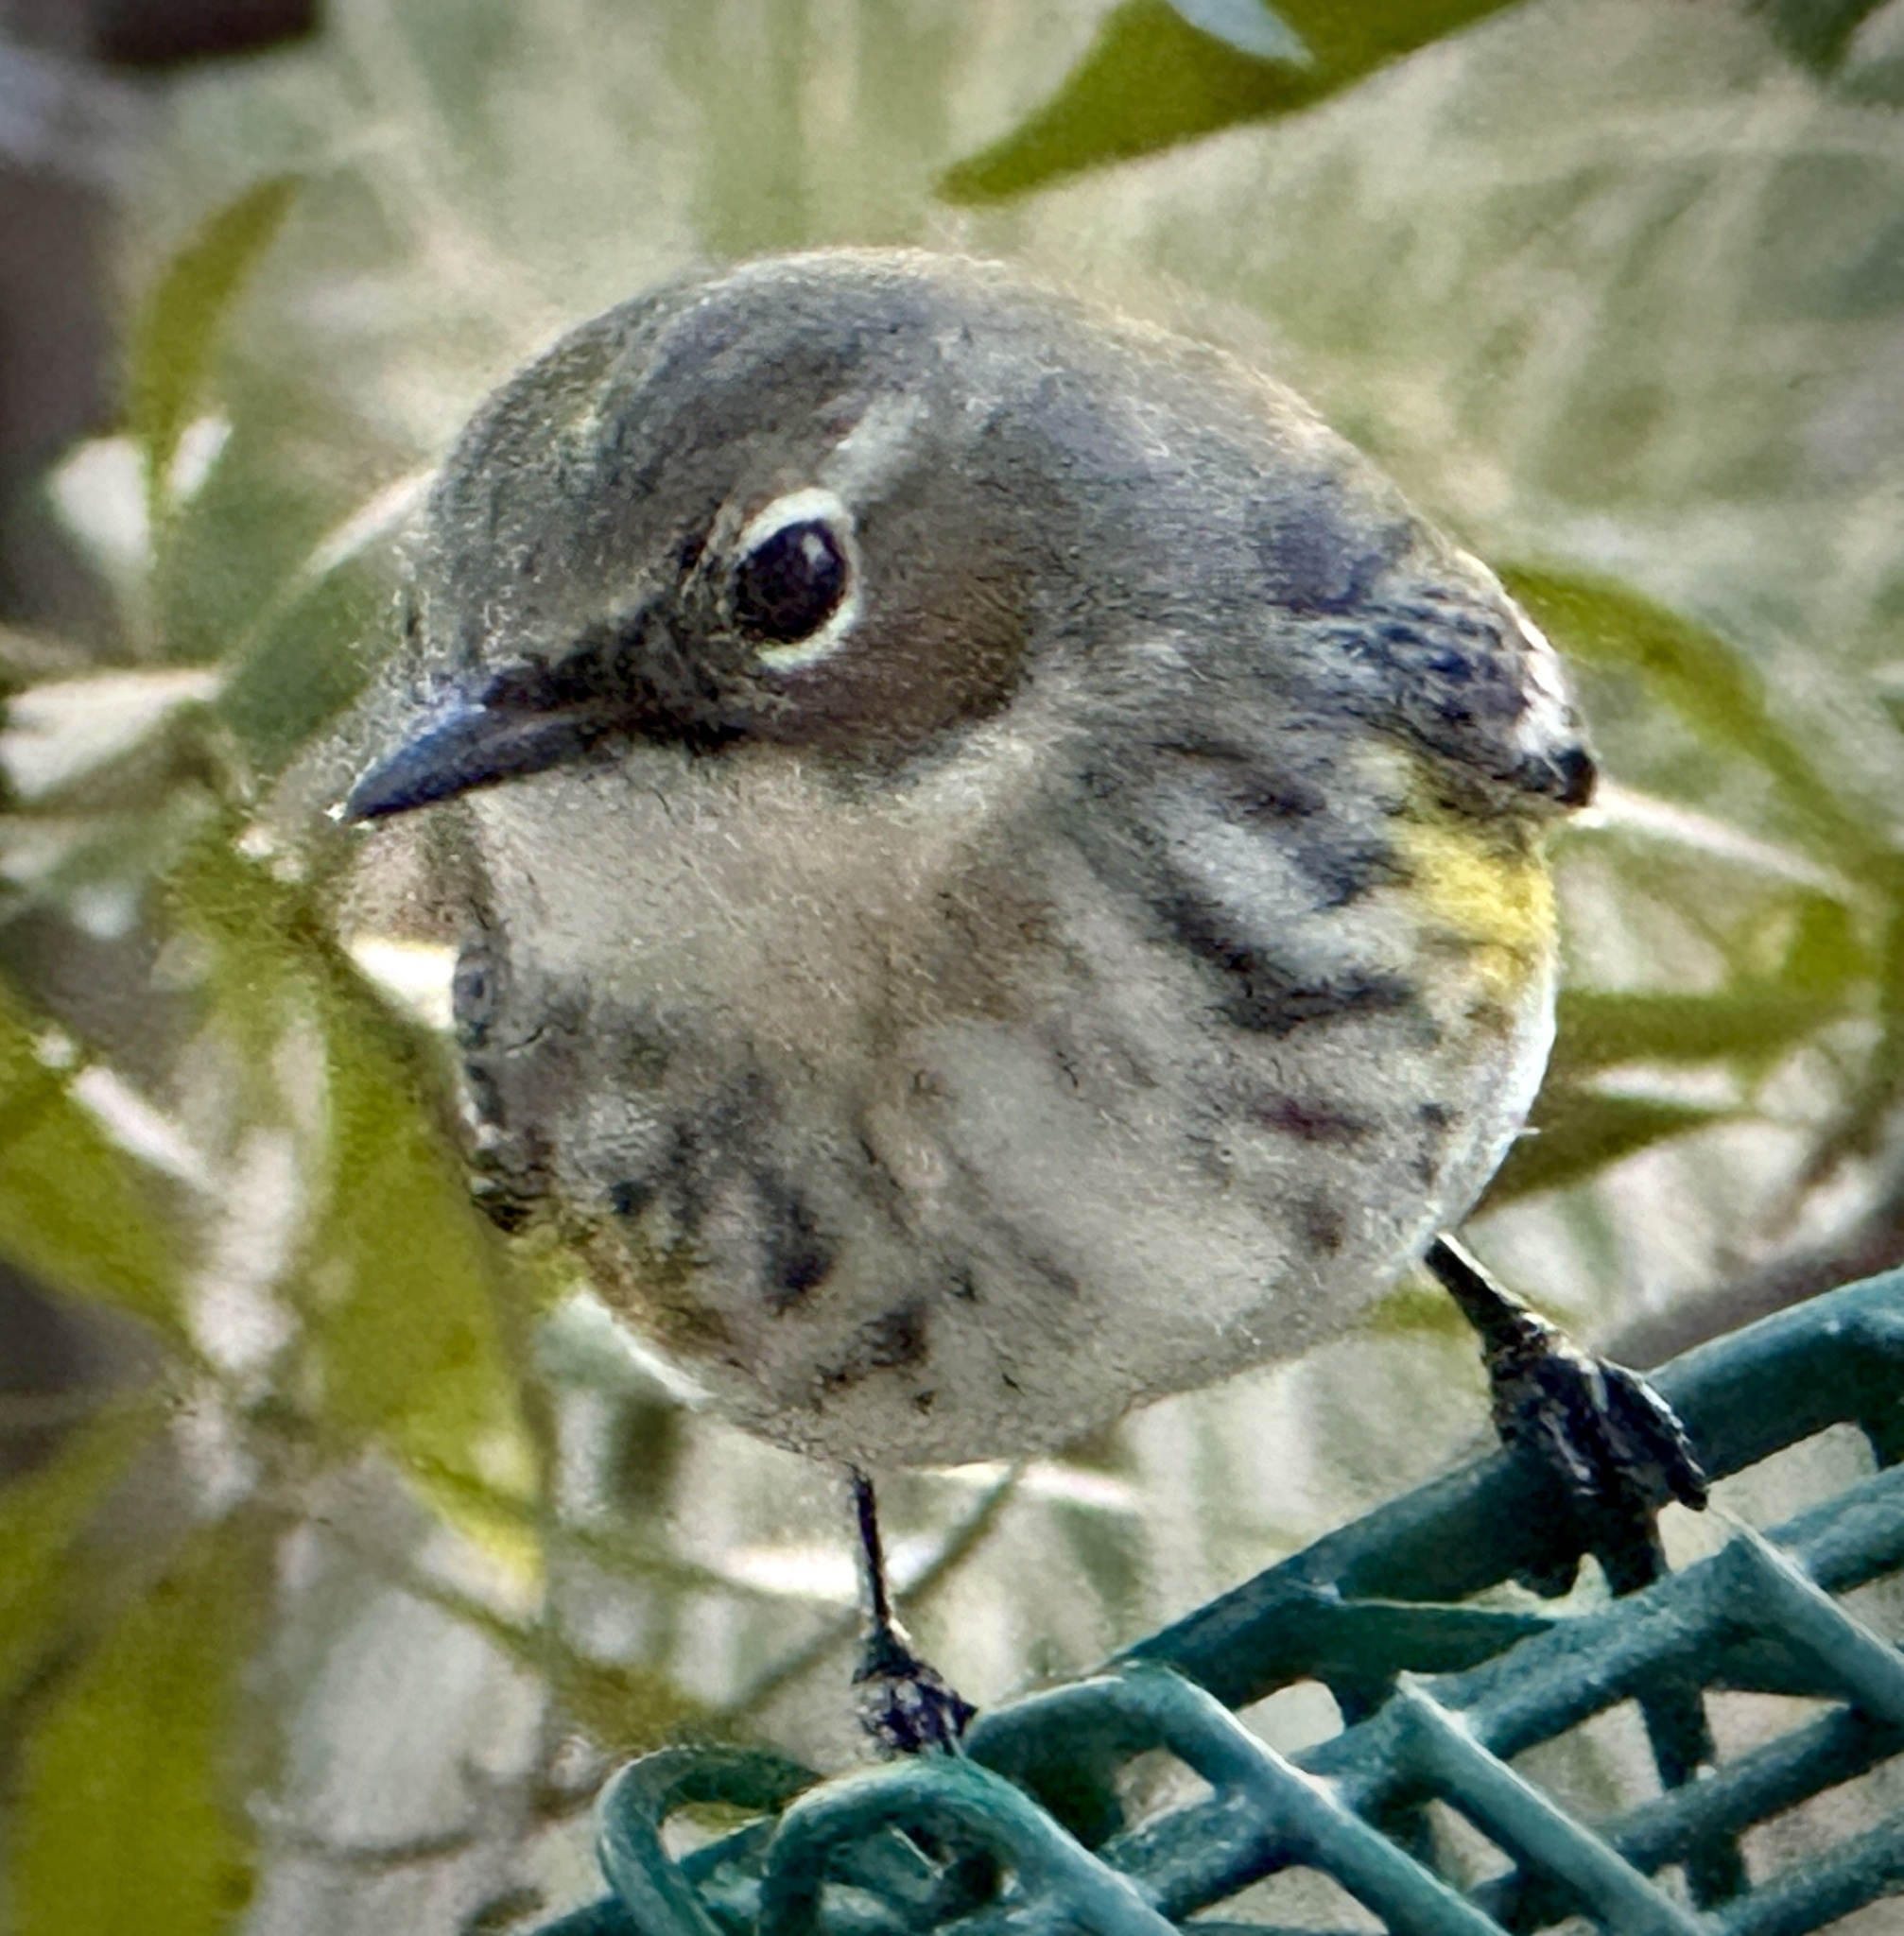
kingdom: Animalia
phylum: Chordata
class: Aves
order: Passeriformes
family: Parulidae
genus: Setophaga
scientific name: Setophaga coronata
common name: Myrtle warbler
